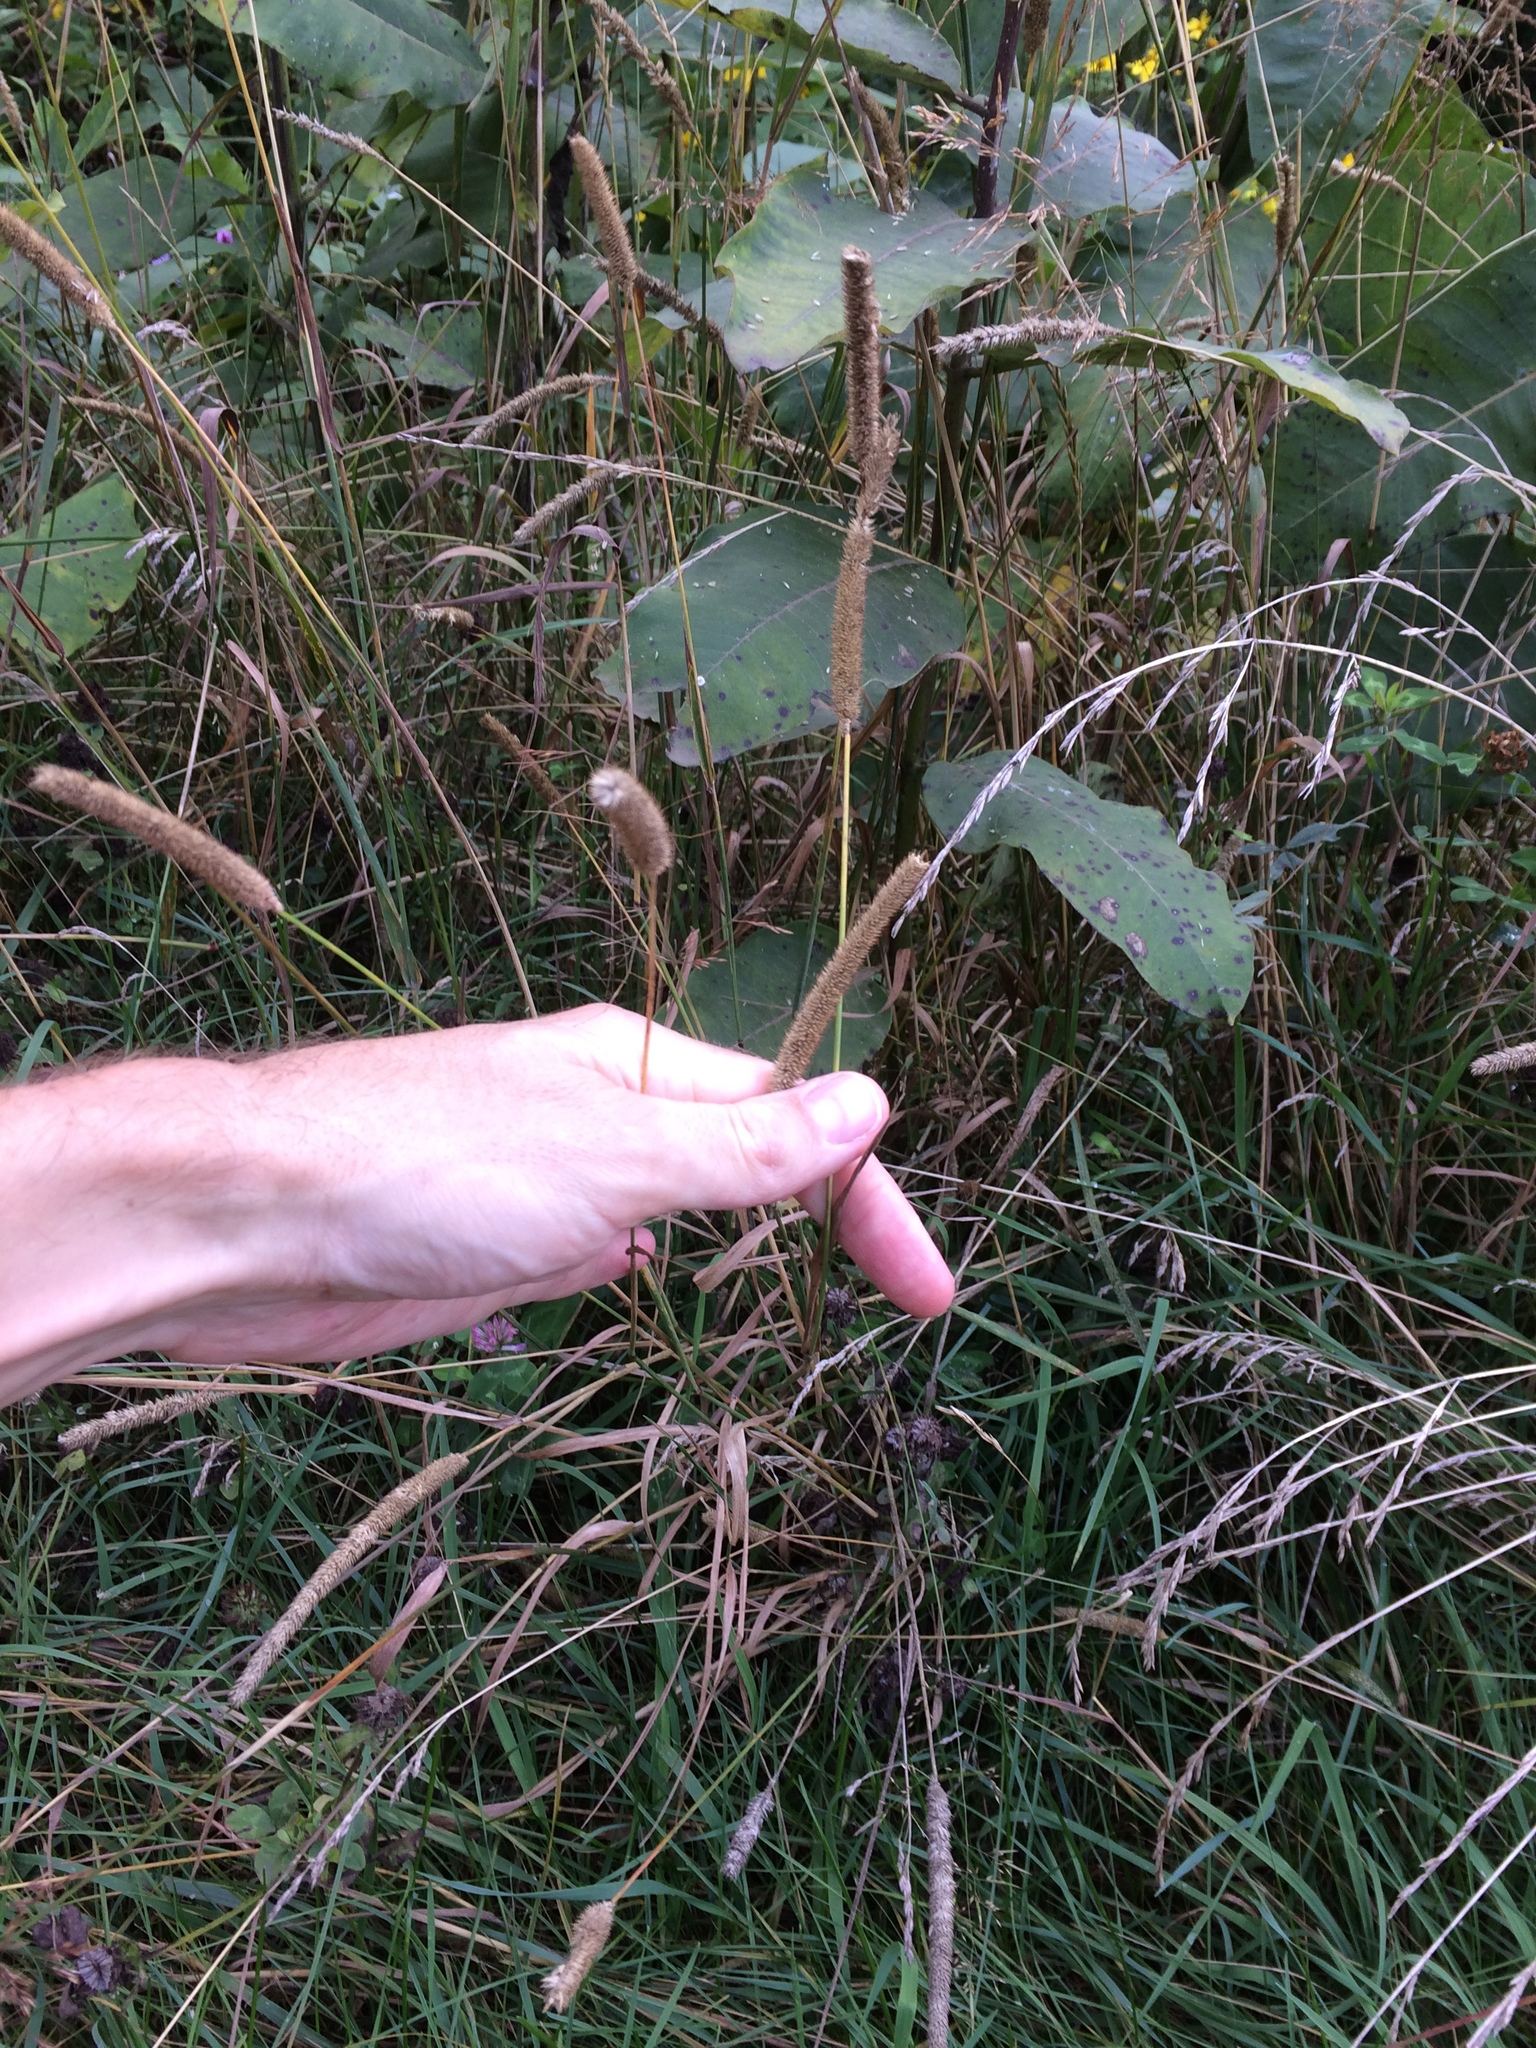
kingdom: Plantae
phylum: Tracheophyta
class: Liliopsida
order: Poales
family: Poaceae
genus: Phleum
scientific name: Phleum pratense
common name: Timothy grass
